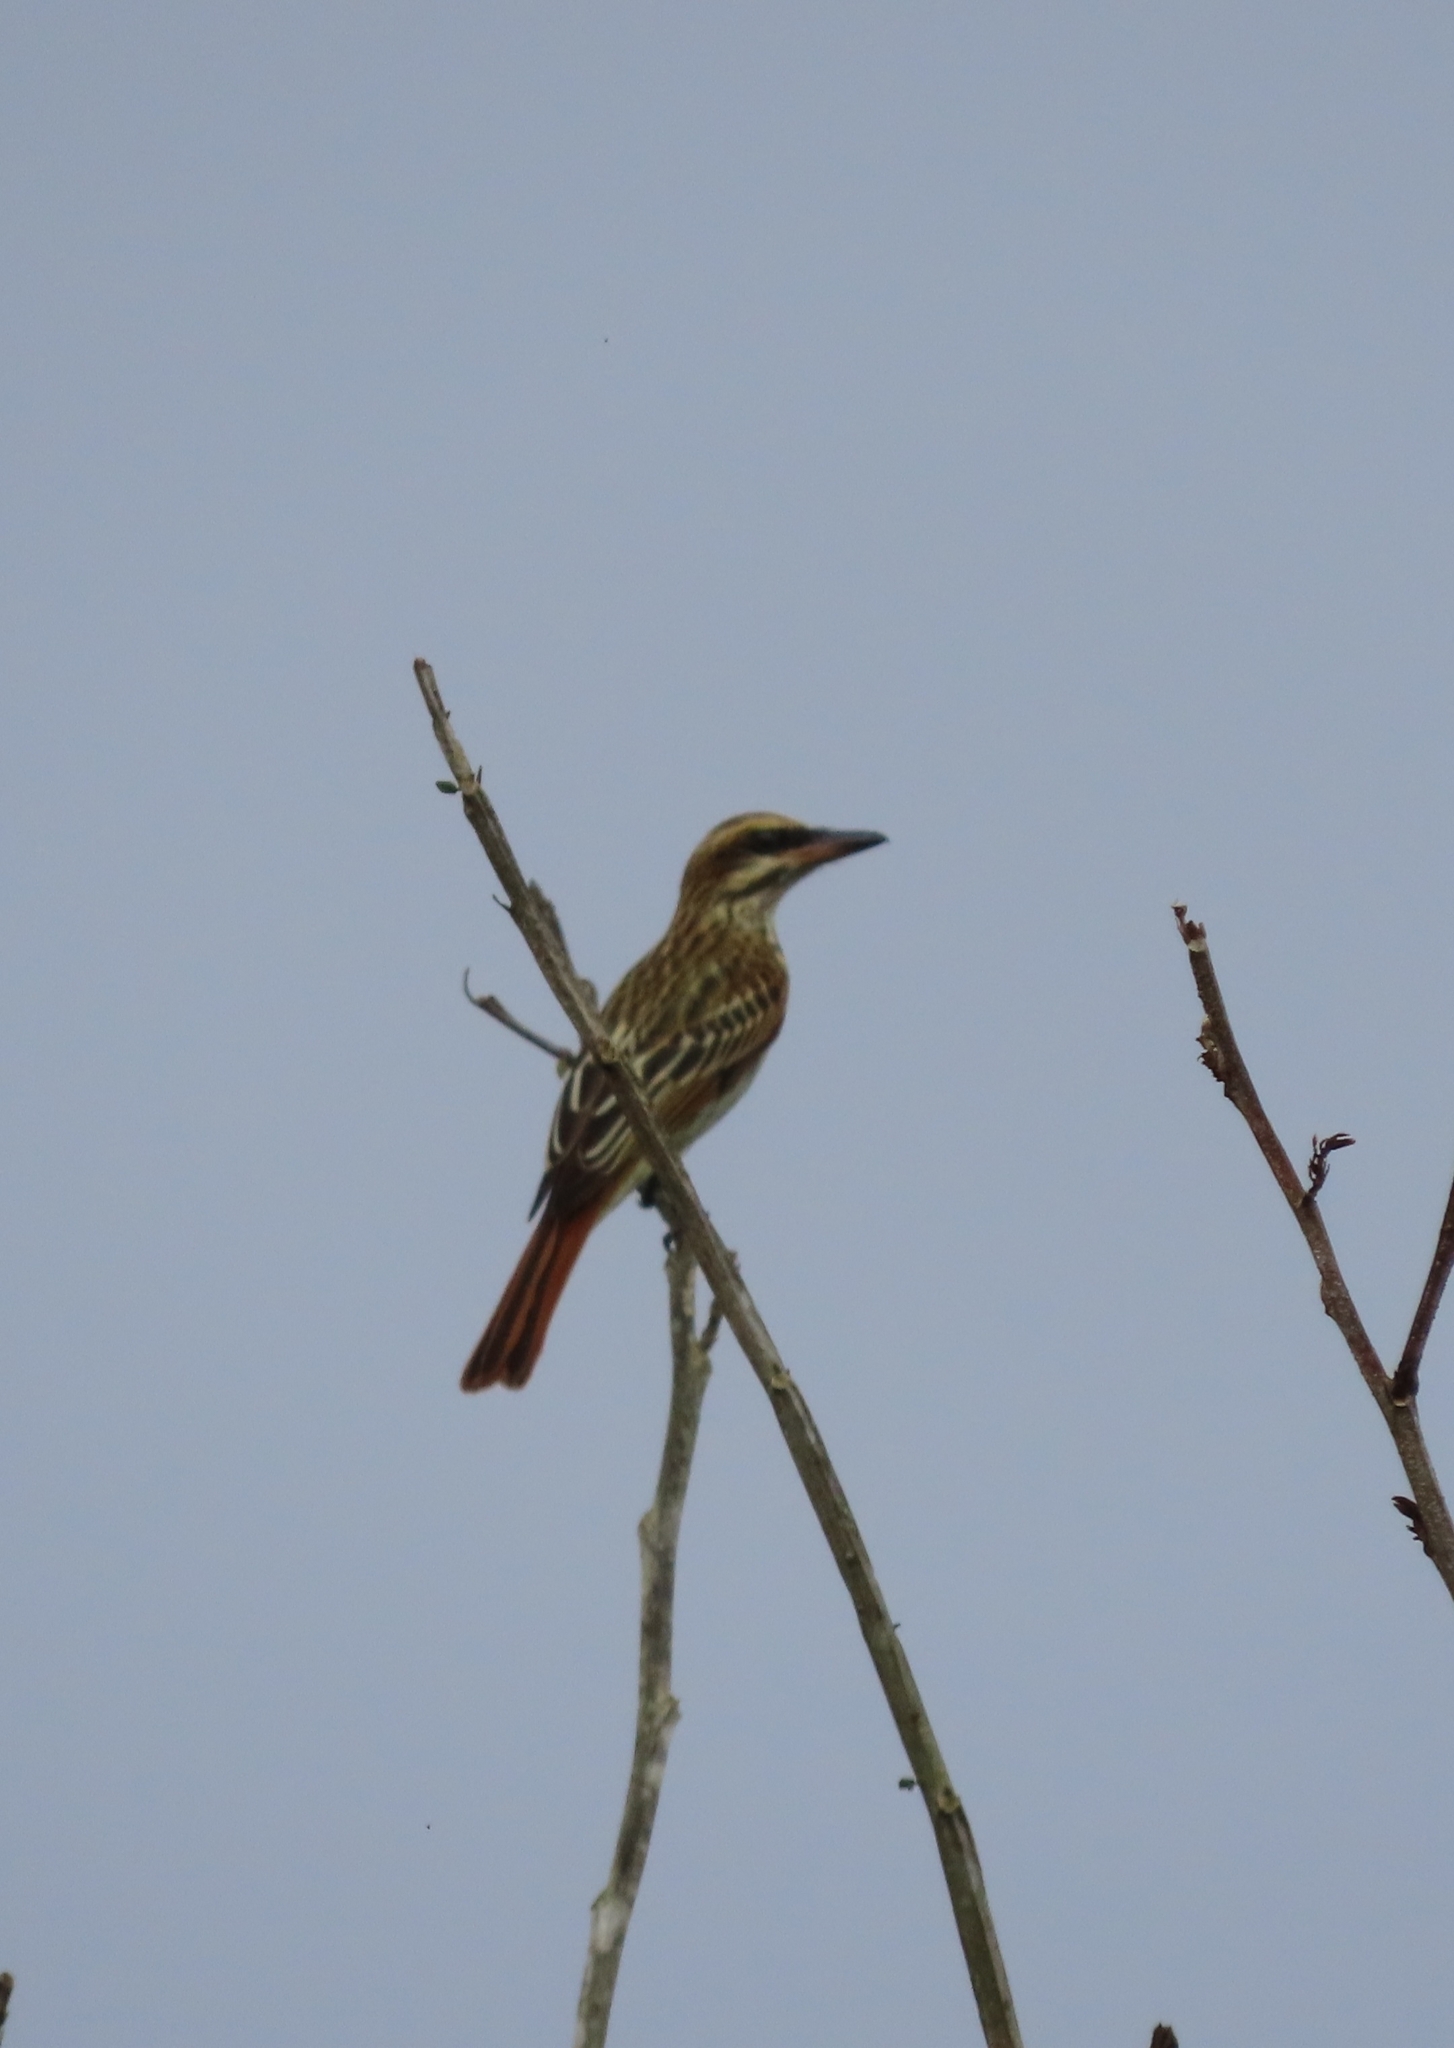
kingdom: Animalia
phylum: Chordata
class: Aves
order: Passeriformes
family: Tyrannidae
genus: Myiodynastes
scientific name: Myiodynastes maculatus
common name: Streaked flycatcher
